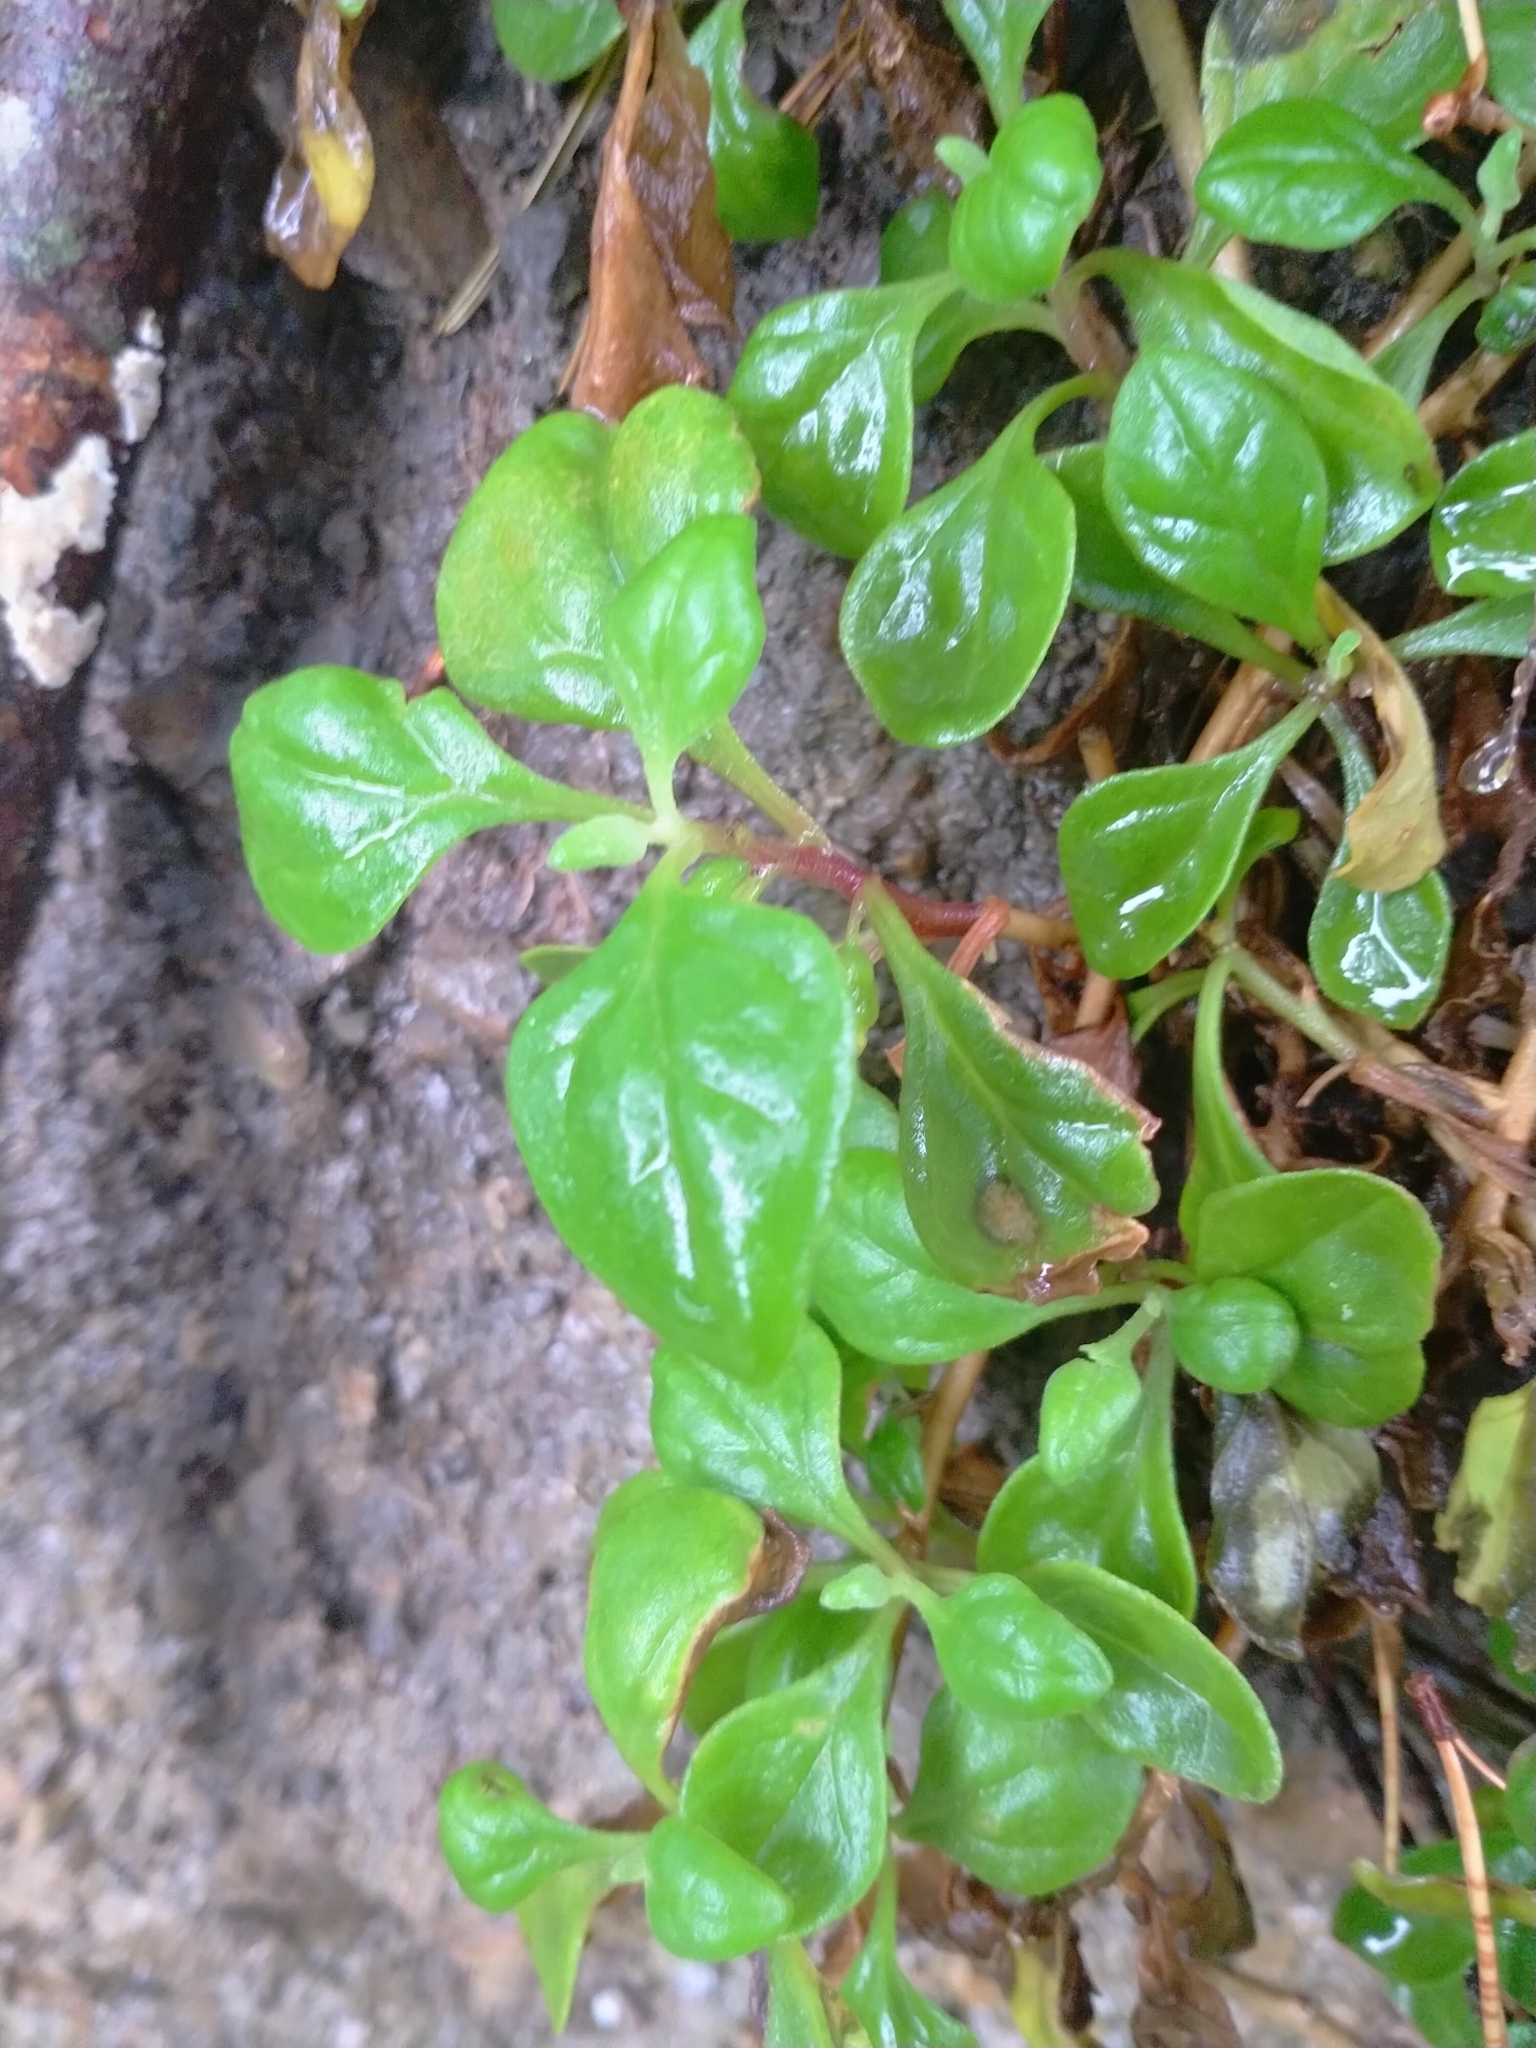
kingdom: Plantae
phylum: Tracheophyta
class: Magnoliopsida
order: Caryophyllales
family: Aizoaceae
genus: Tetragonia
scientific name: Tetragonia implexicoma
